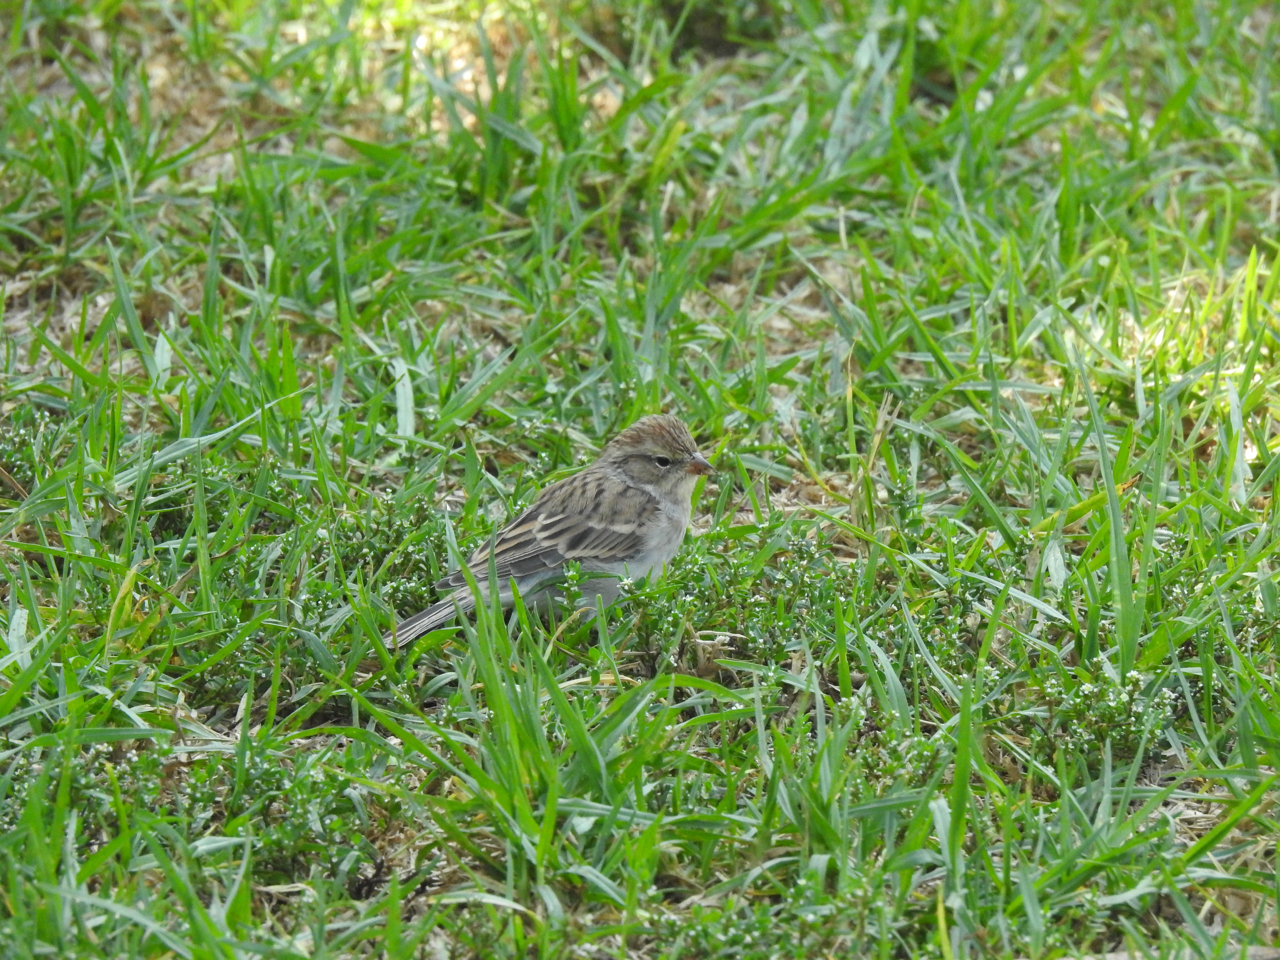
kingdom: Animalia
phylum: Chordata
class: Aves
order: Passeriformes
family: Passerellidae
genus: Spizella
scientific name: Spizella passerina
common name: Chipping sparrow
